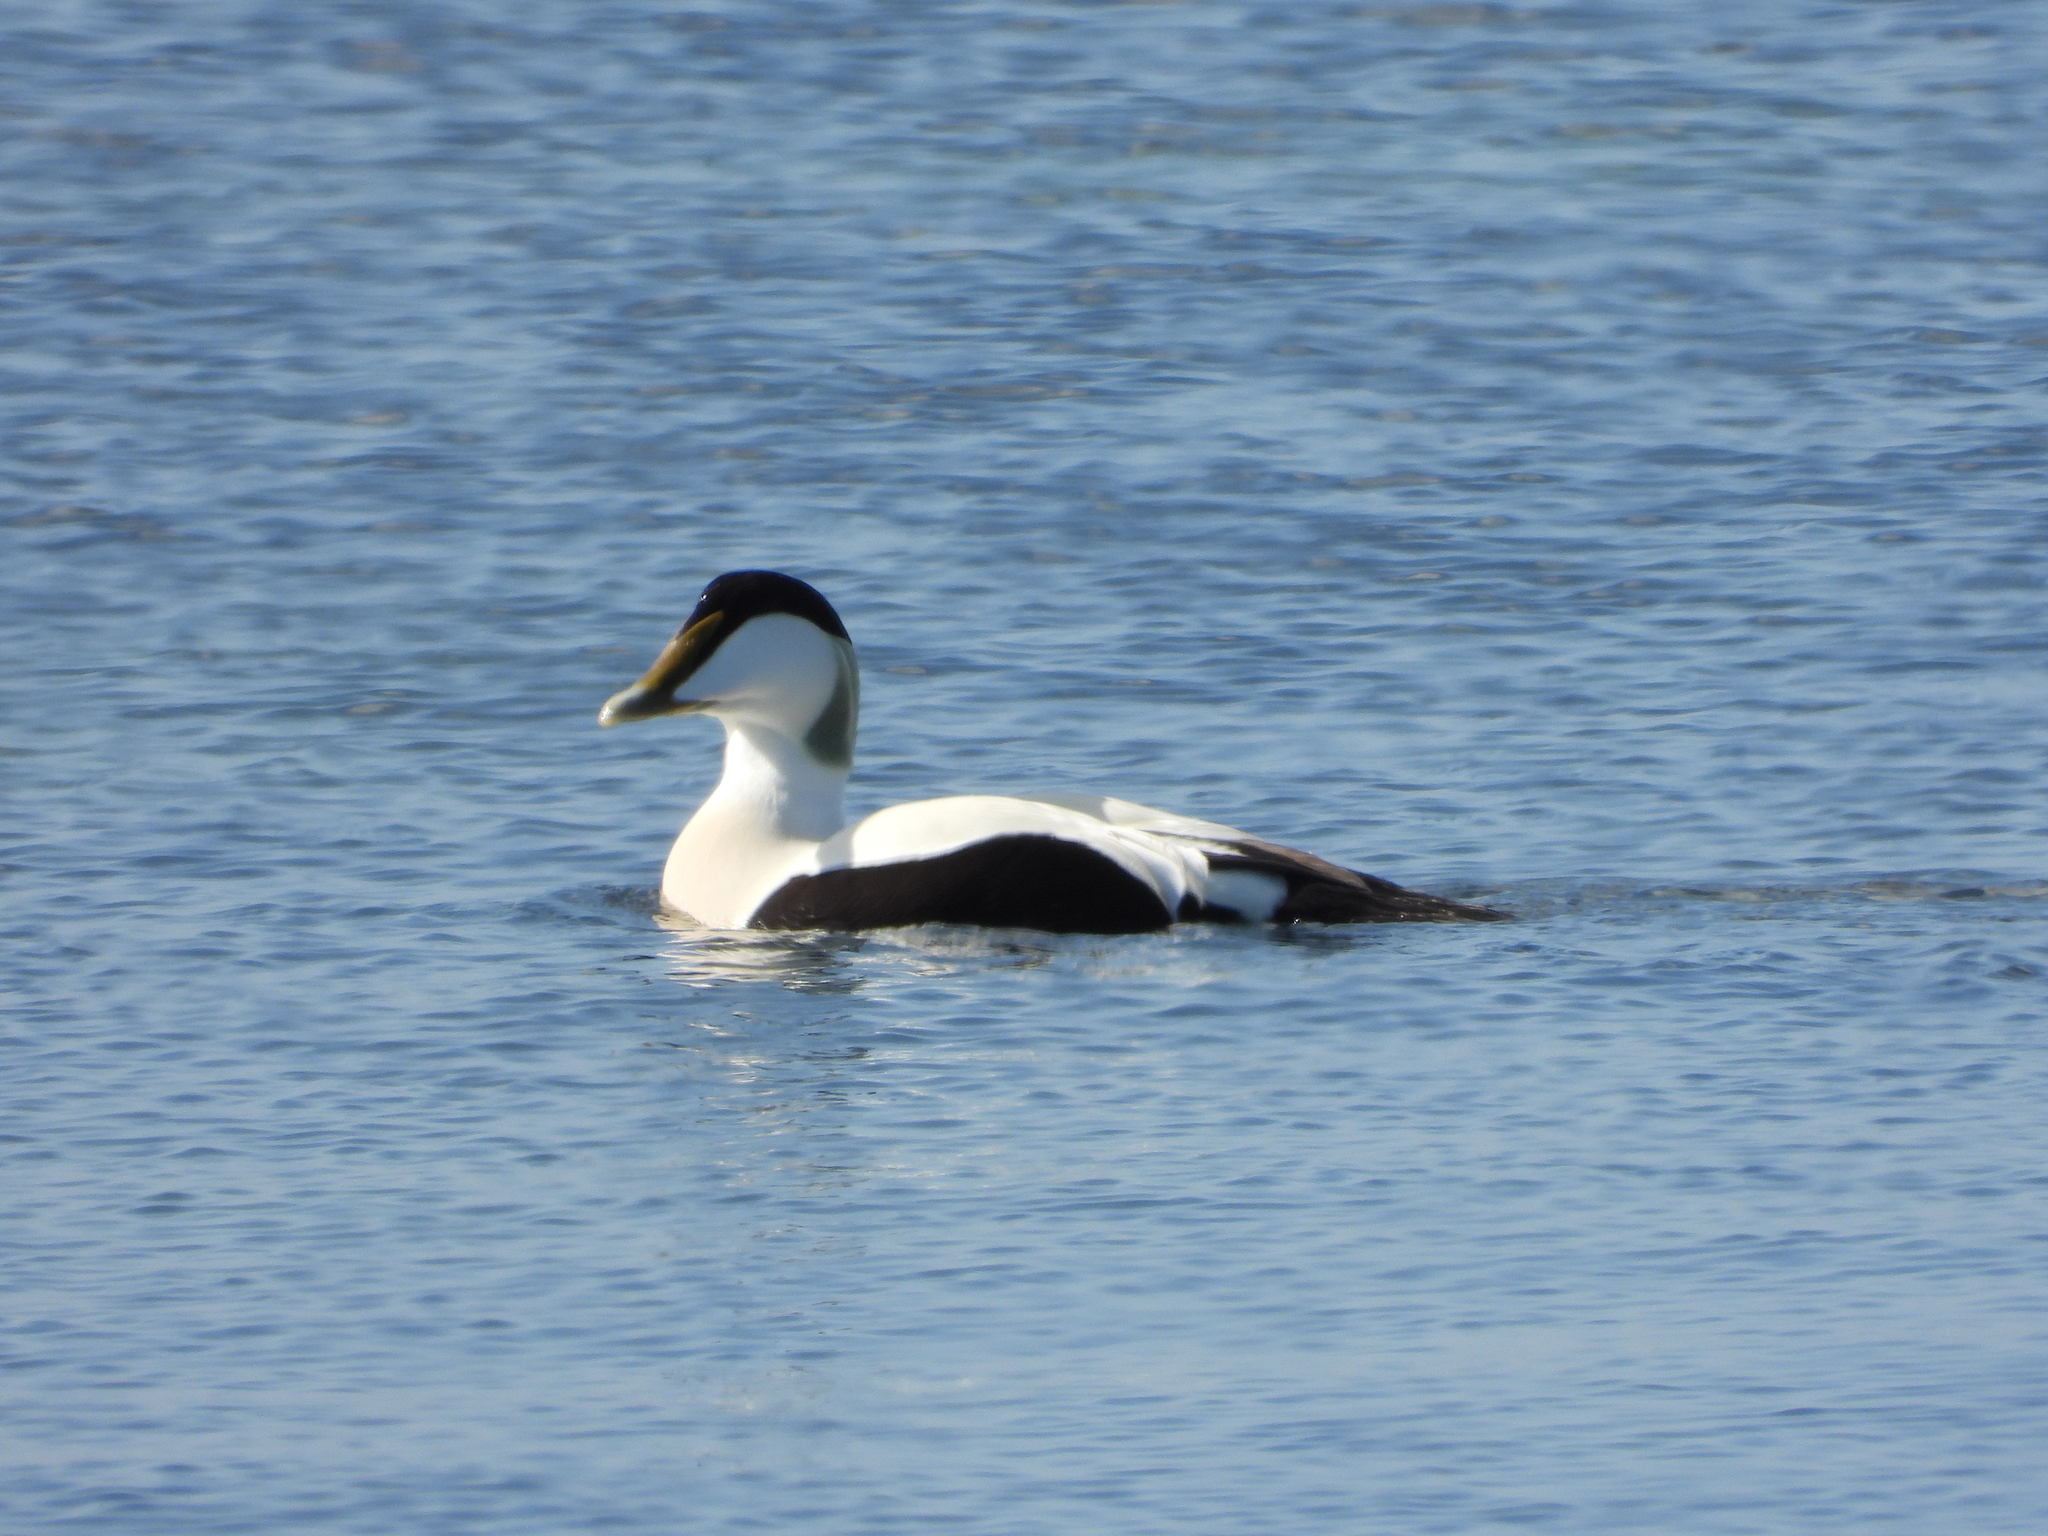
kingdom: Animalia
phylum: Chordata
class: Aves
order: Anseriformes
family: Anatidae
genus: Somateria
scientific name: Somateria mollissima
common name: Common eider
